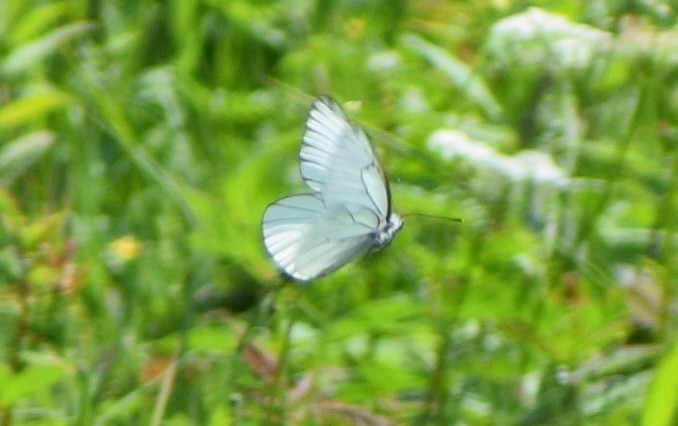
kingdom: Animalia
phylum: Arthropoda
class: Insecta
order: Lepidoptera
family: Pieridae
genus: Aporia
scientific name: Aporia crataegi
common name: Black-veined white
